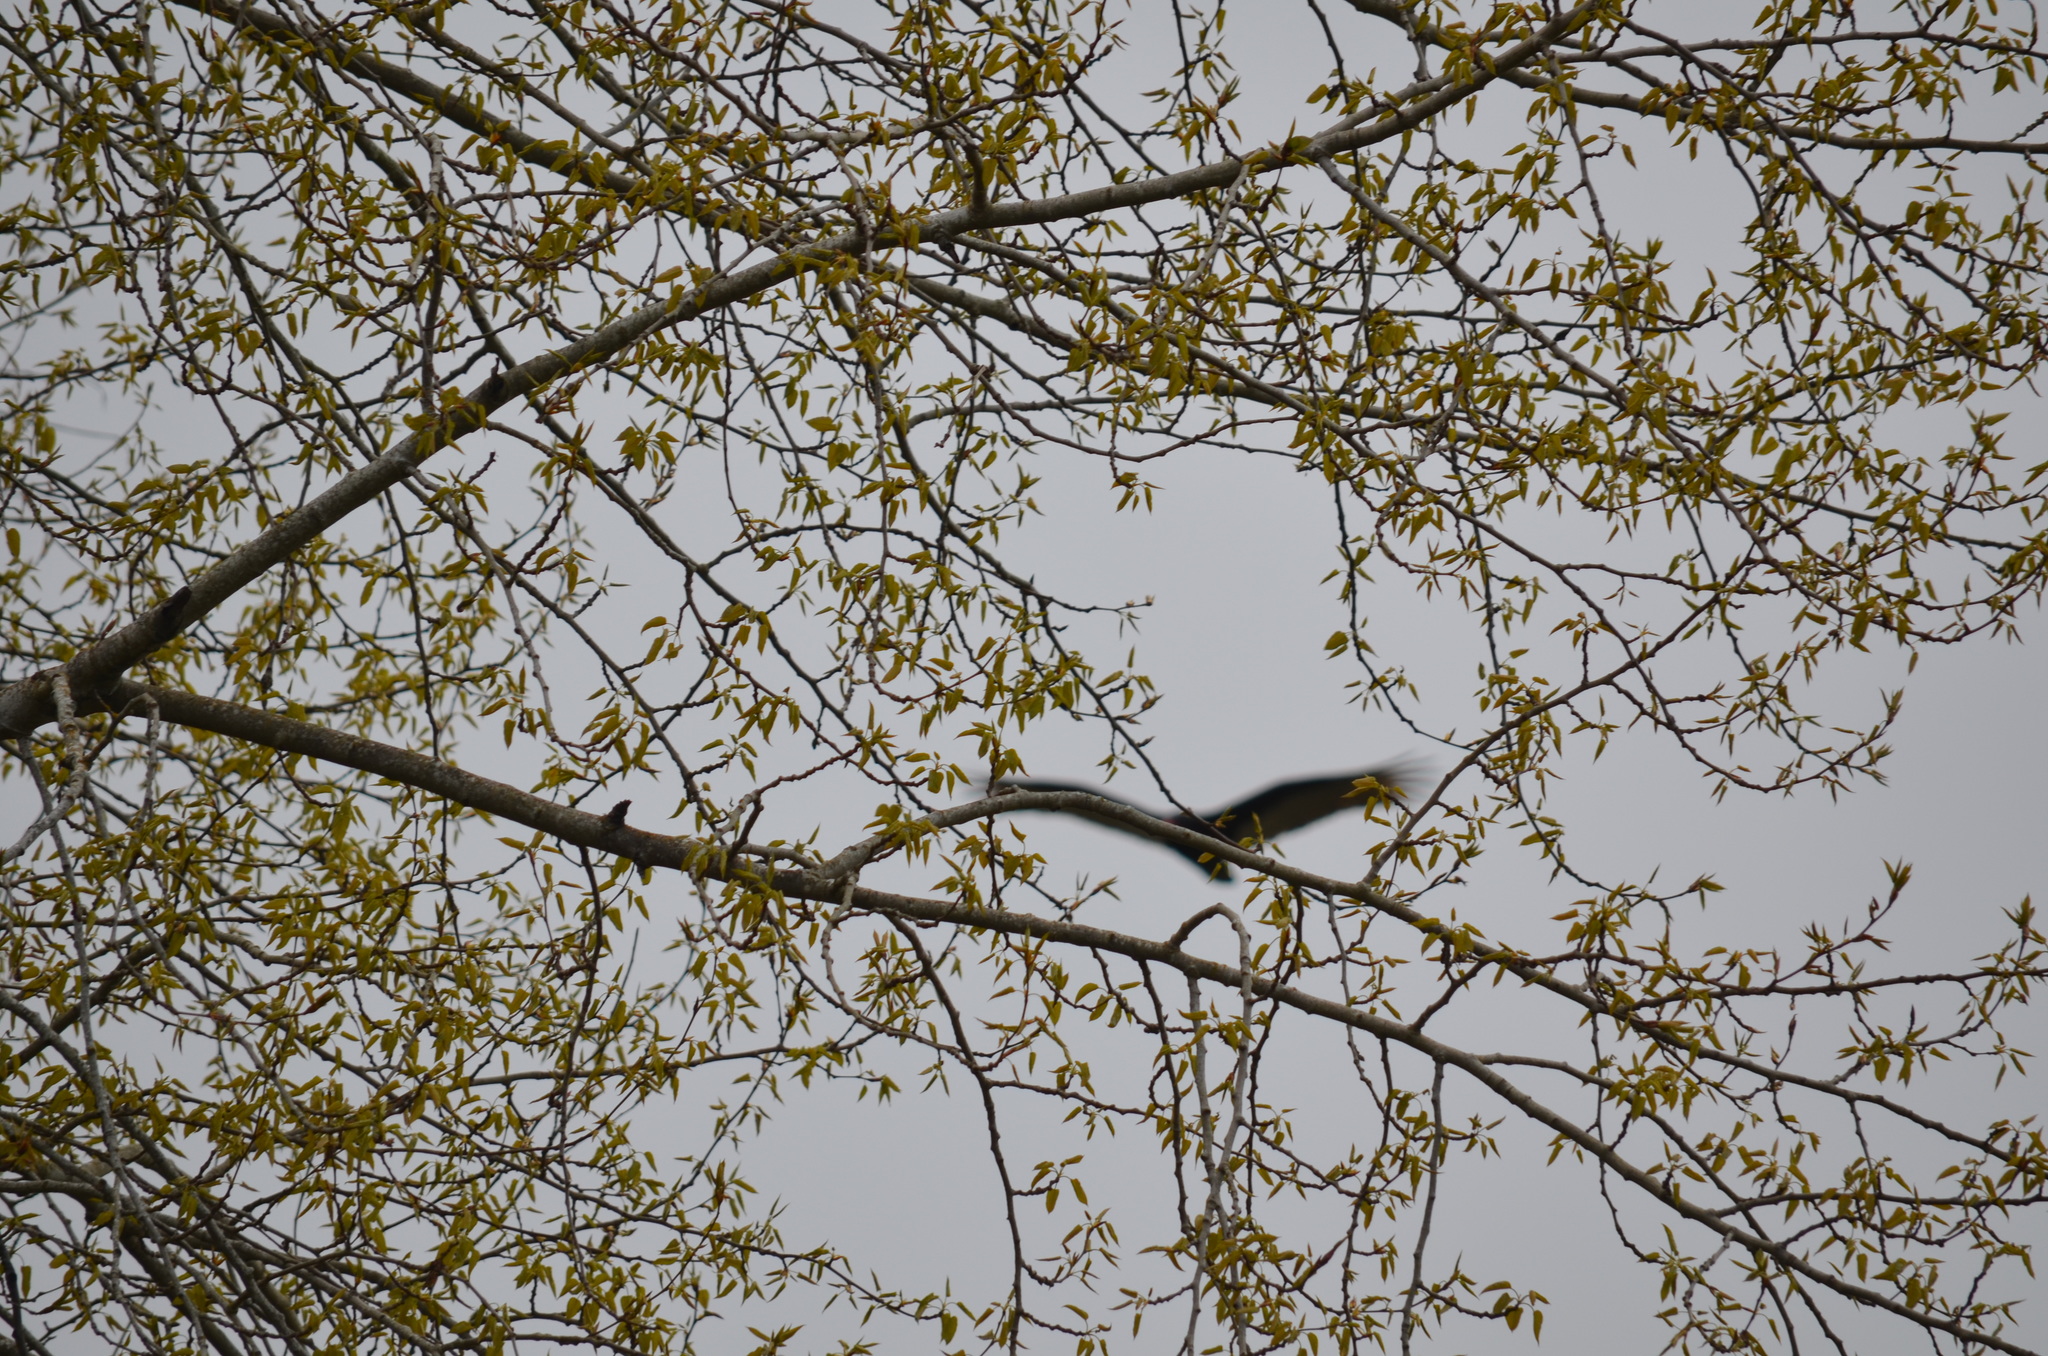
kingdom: Animalia
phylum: Chordata
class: Aves
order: Accipitriformes
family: Cathartidae
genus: Cathartes
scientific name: Cathartes aura
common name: Turkey vulture
